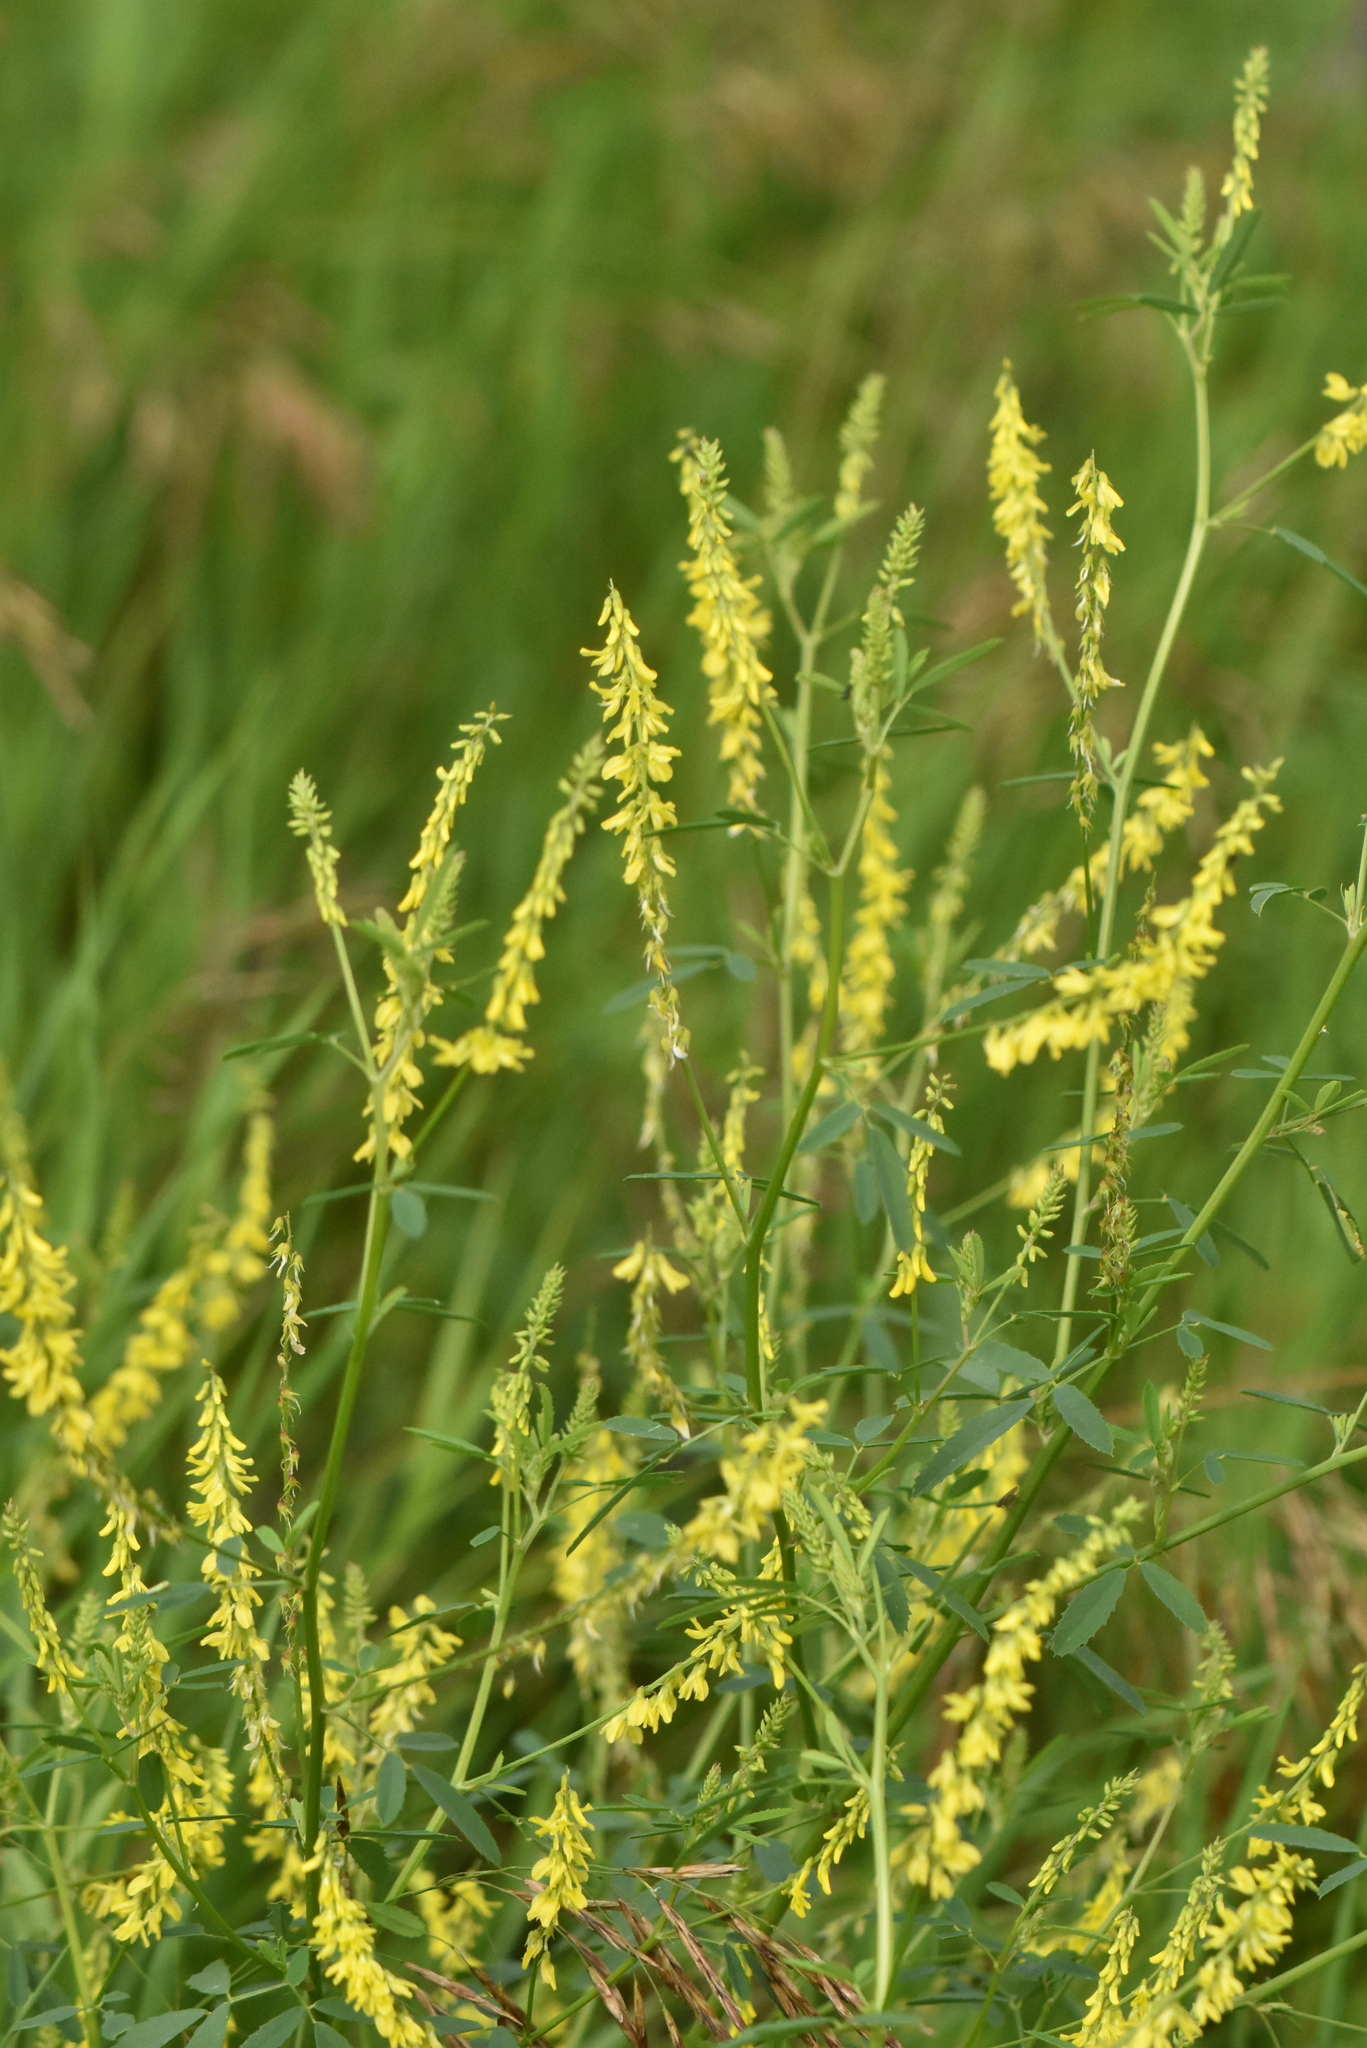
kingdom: Plantae
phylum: Tracheophyta
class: Magnoliopsida
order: Fabales
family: Fabaceae
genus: Melilotus
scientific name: Melilotus officinalis
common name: Sweetclover
